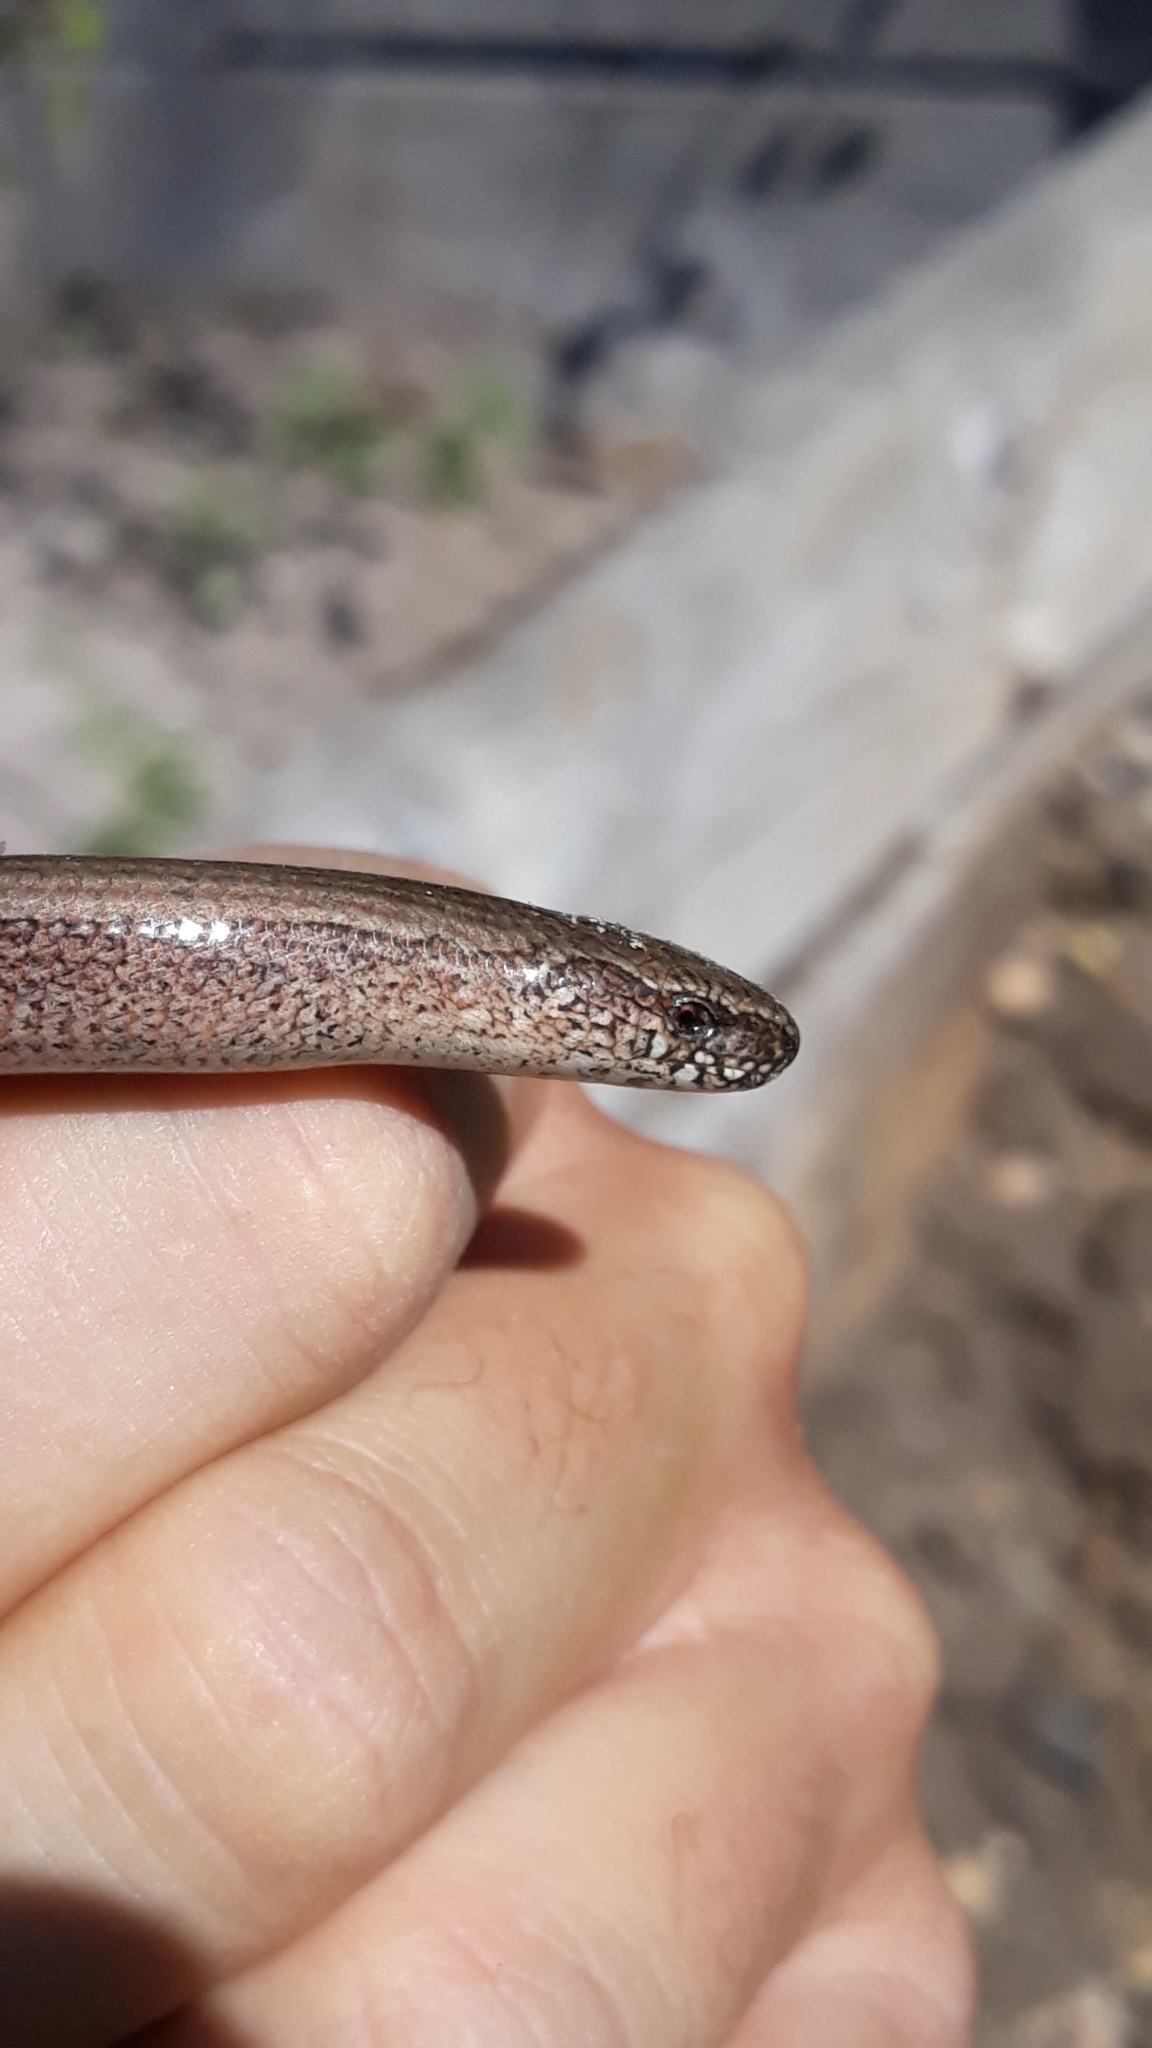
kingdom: Animalia
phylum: Chordata
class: Squamata
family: Anguidae
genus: Anguis
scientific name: Anguis fragilis
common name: Slow worm
